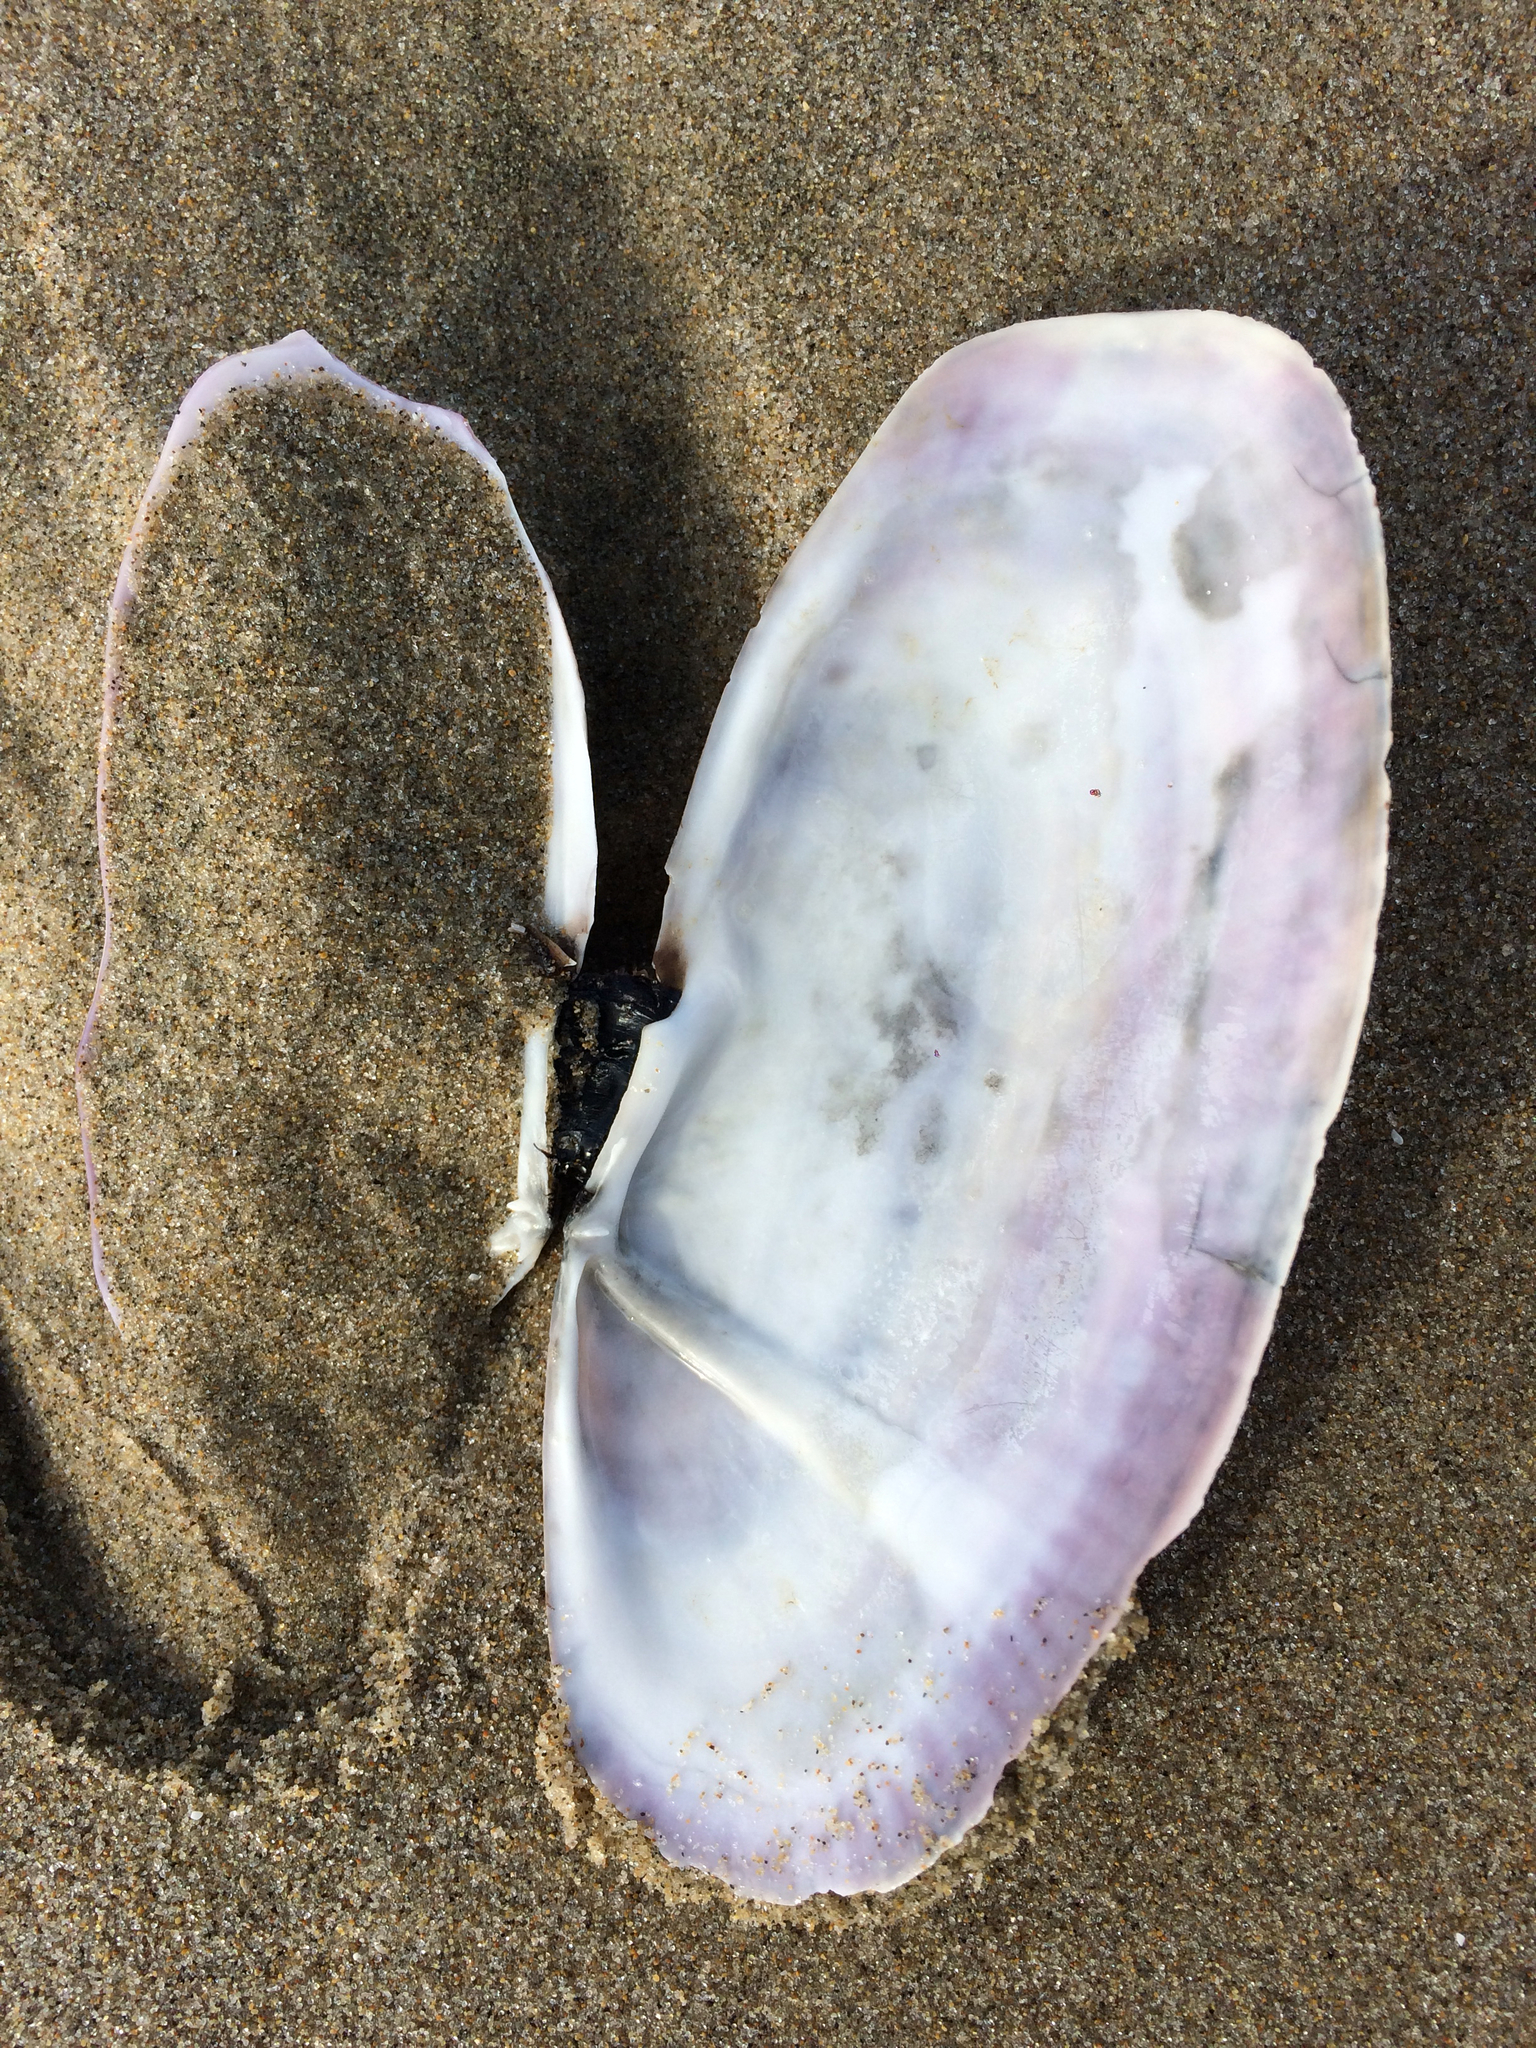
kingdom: Animalia
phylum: Mollusca
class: Bivalvia
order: Adapedonta
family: Pharidae
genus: Siliqua
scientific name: Siliqua patula
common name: Pacific razor clam
